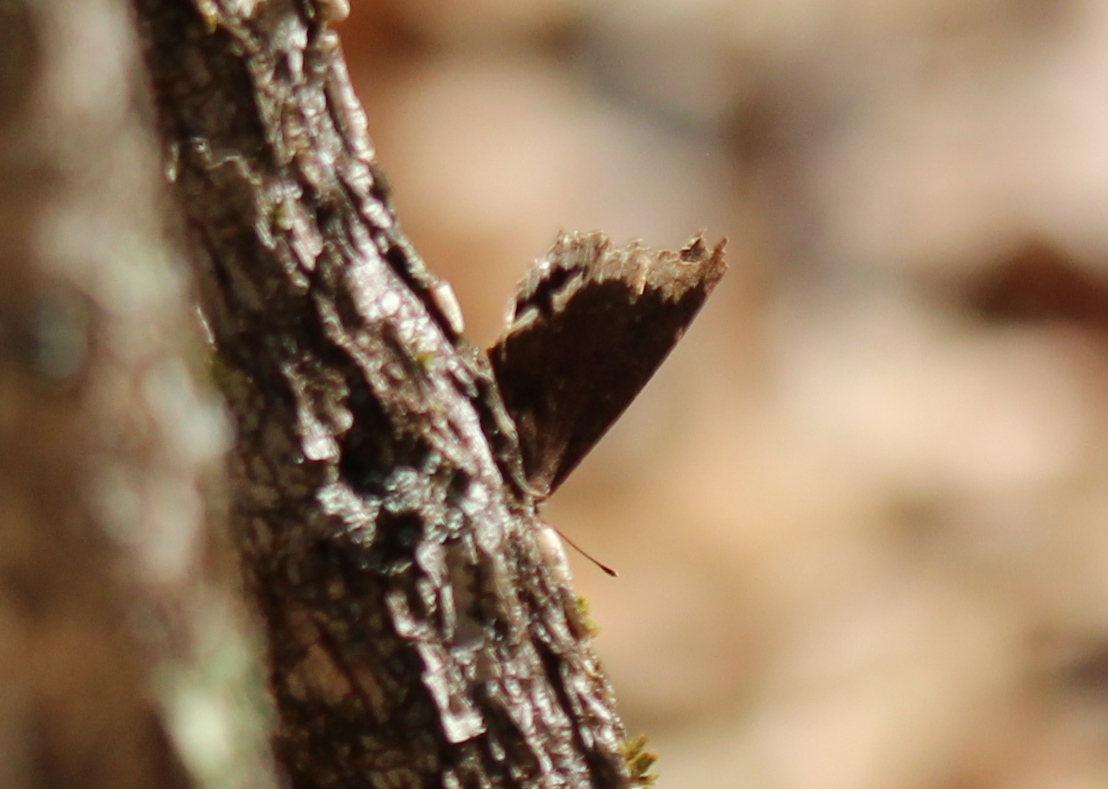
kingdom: Animalia
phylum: Arthropoda
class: Insecta
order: Lepidoptera
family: Nymphalidae
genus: Nymphalis
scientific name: Nymphalis antiopa
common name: Camberwell beauty
